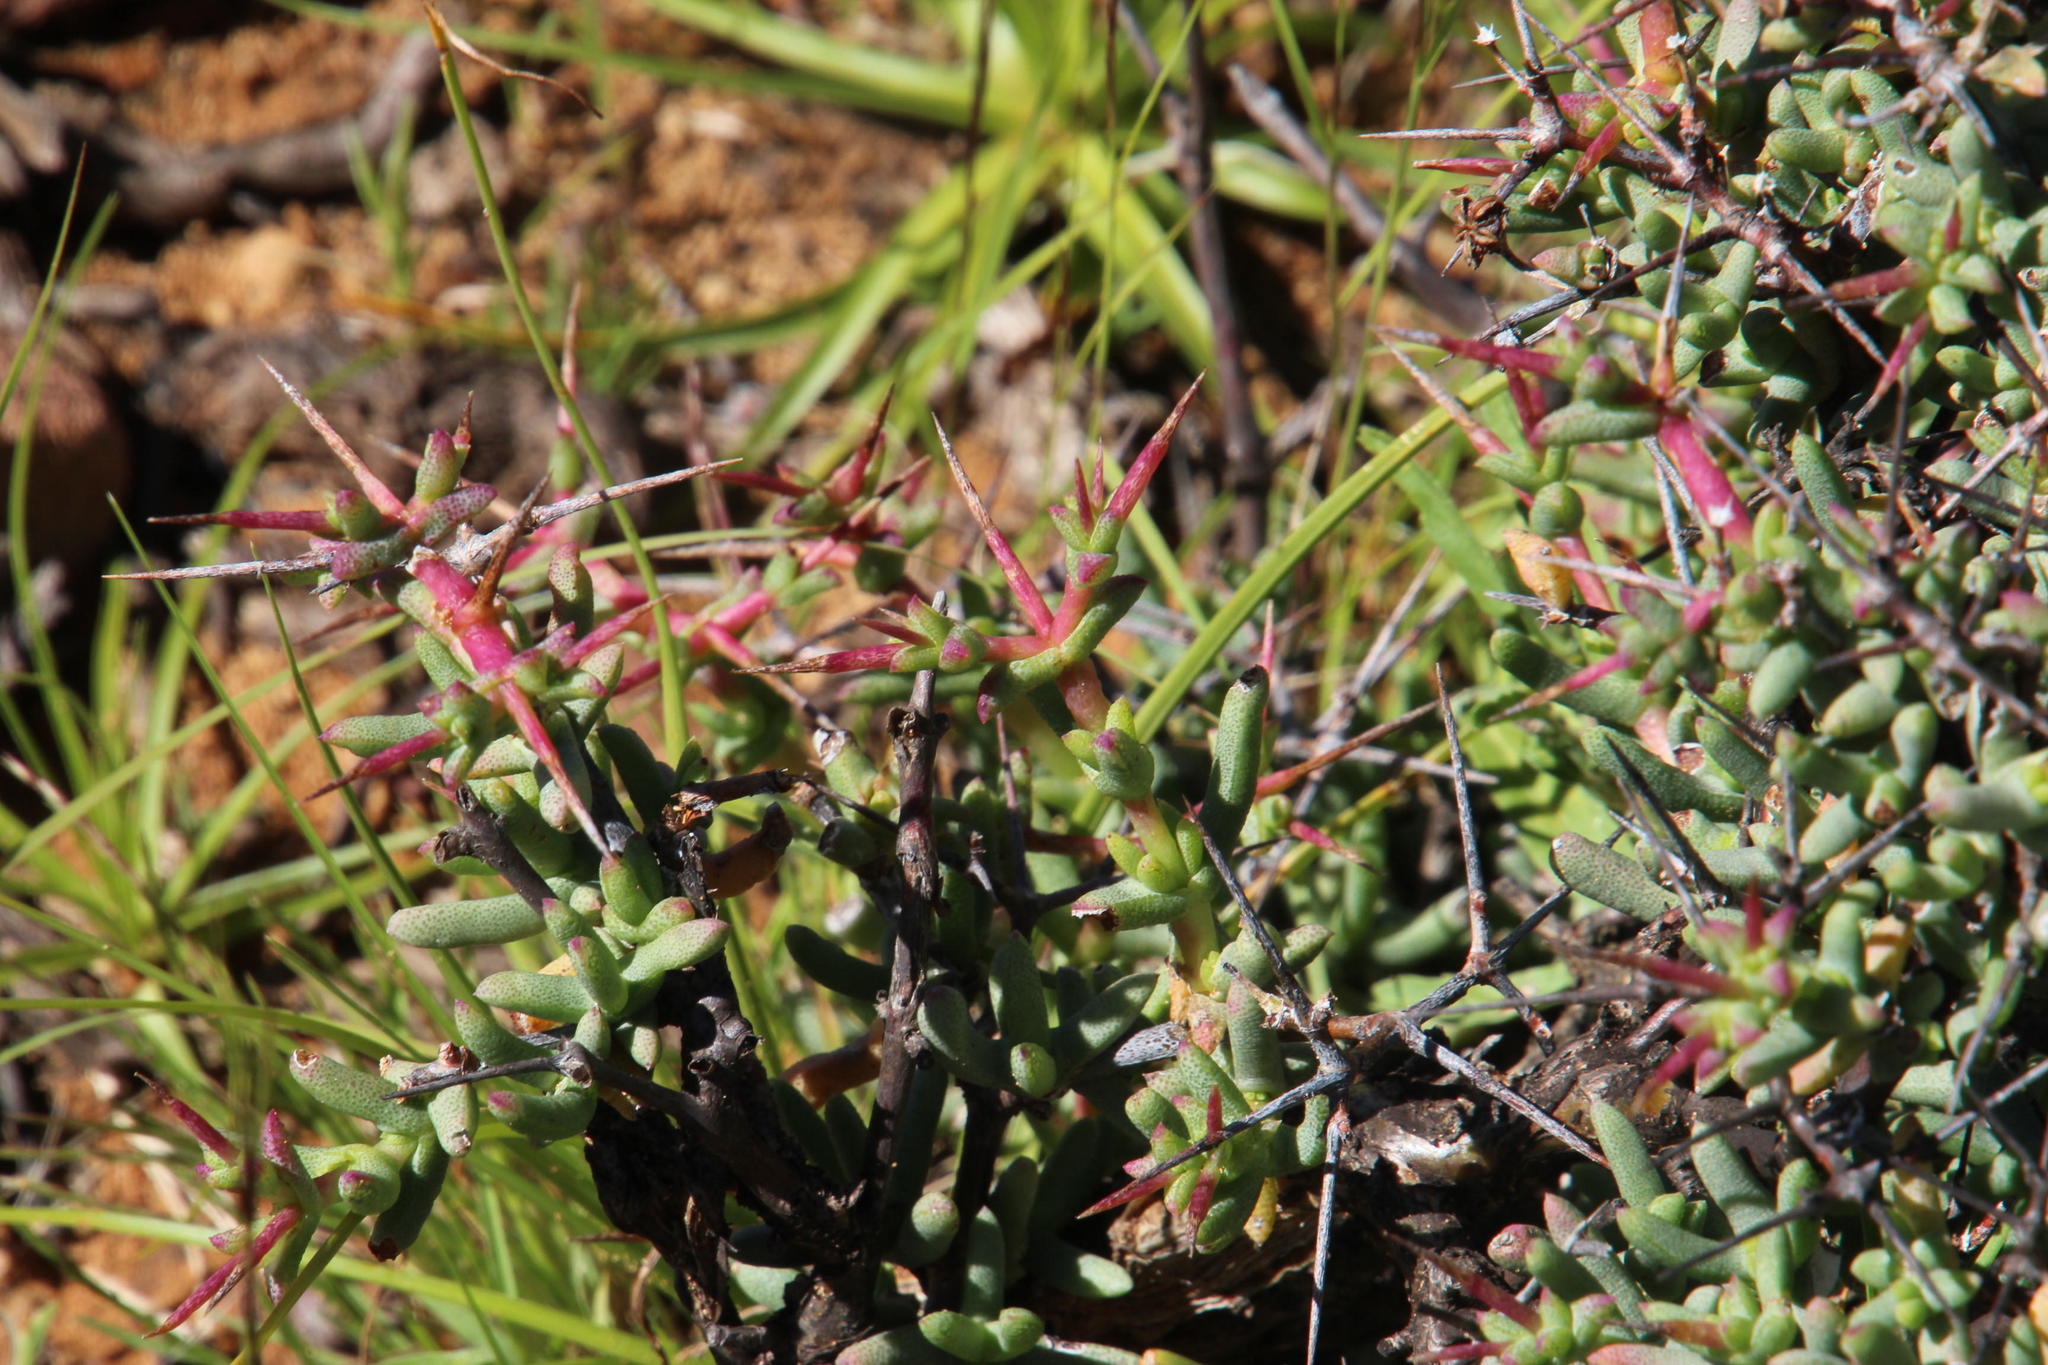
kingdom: Plantae
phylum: Tracheophyta
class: Magnoliopsida
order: Caryophyllales
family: Aizoaceae
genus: Ruschia
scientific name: Ruschia intricata
